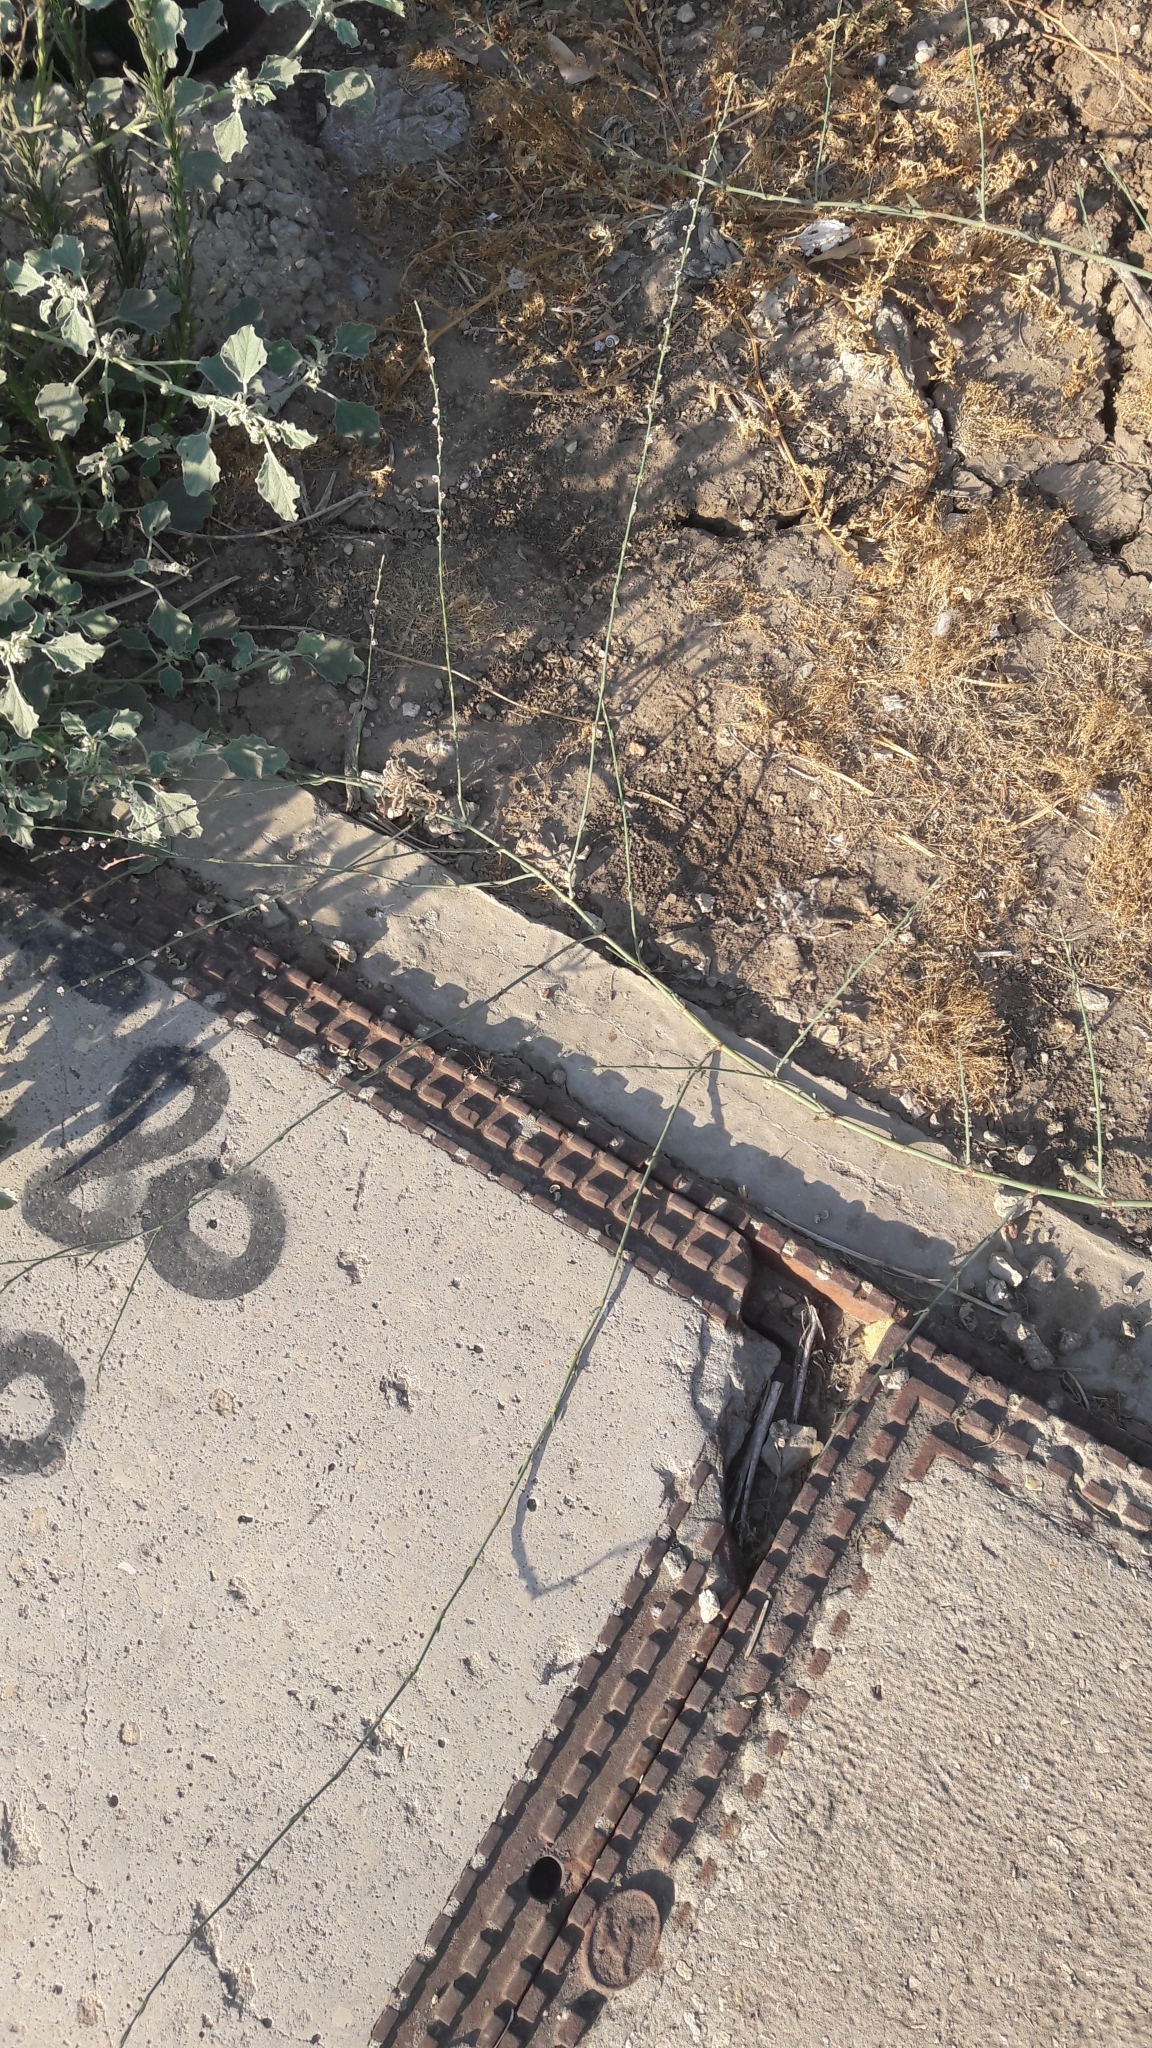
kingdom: Plantae
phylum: Tracheophyta
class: Magnoliopsida
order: Caryophyllales
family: Polygonaceae
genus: Polygonum
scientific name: Polygonum equisetiforme
